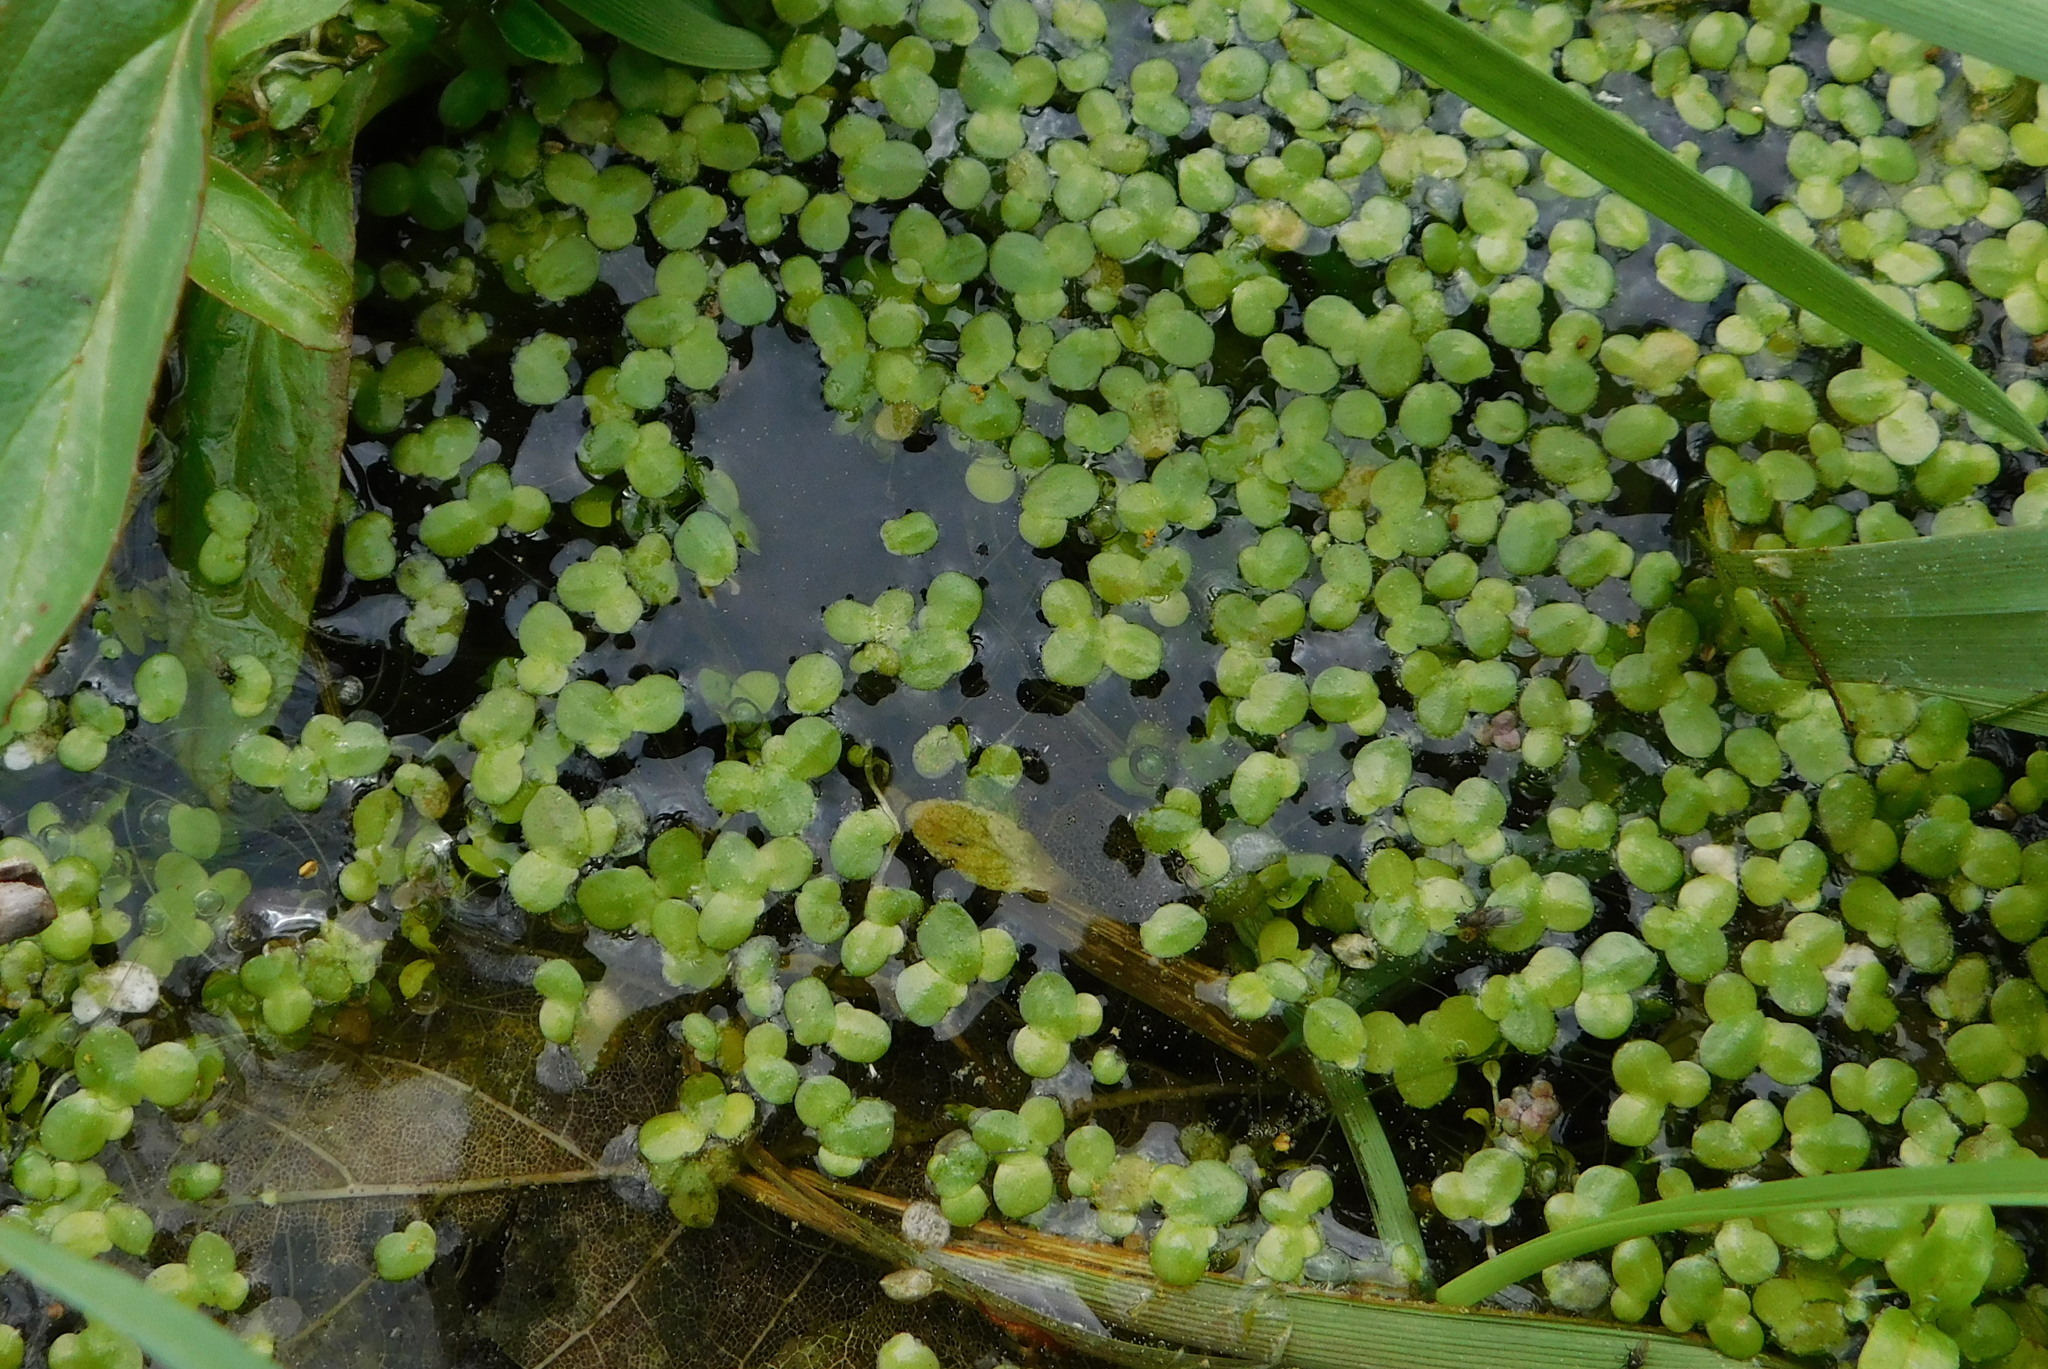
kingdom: Plantae
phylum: Tracheophyta
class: Liliopsida
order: Alismatales
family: Araceae
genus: Lemna
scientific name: Lemna minor
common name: Common duckweed
